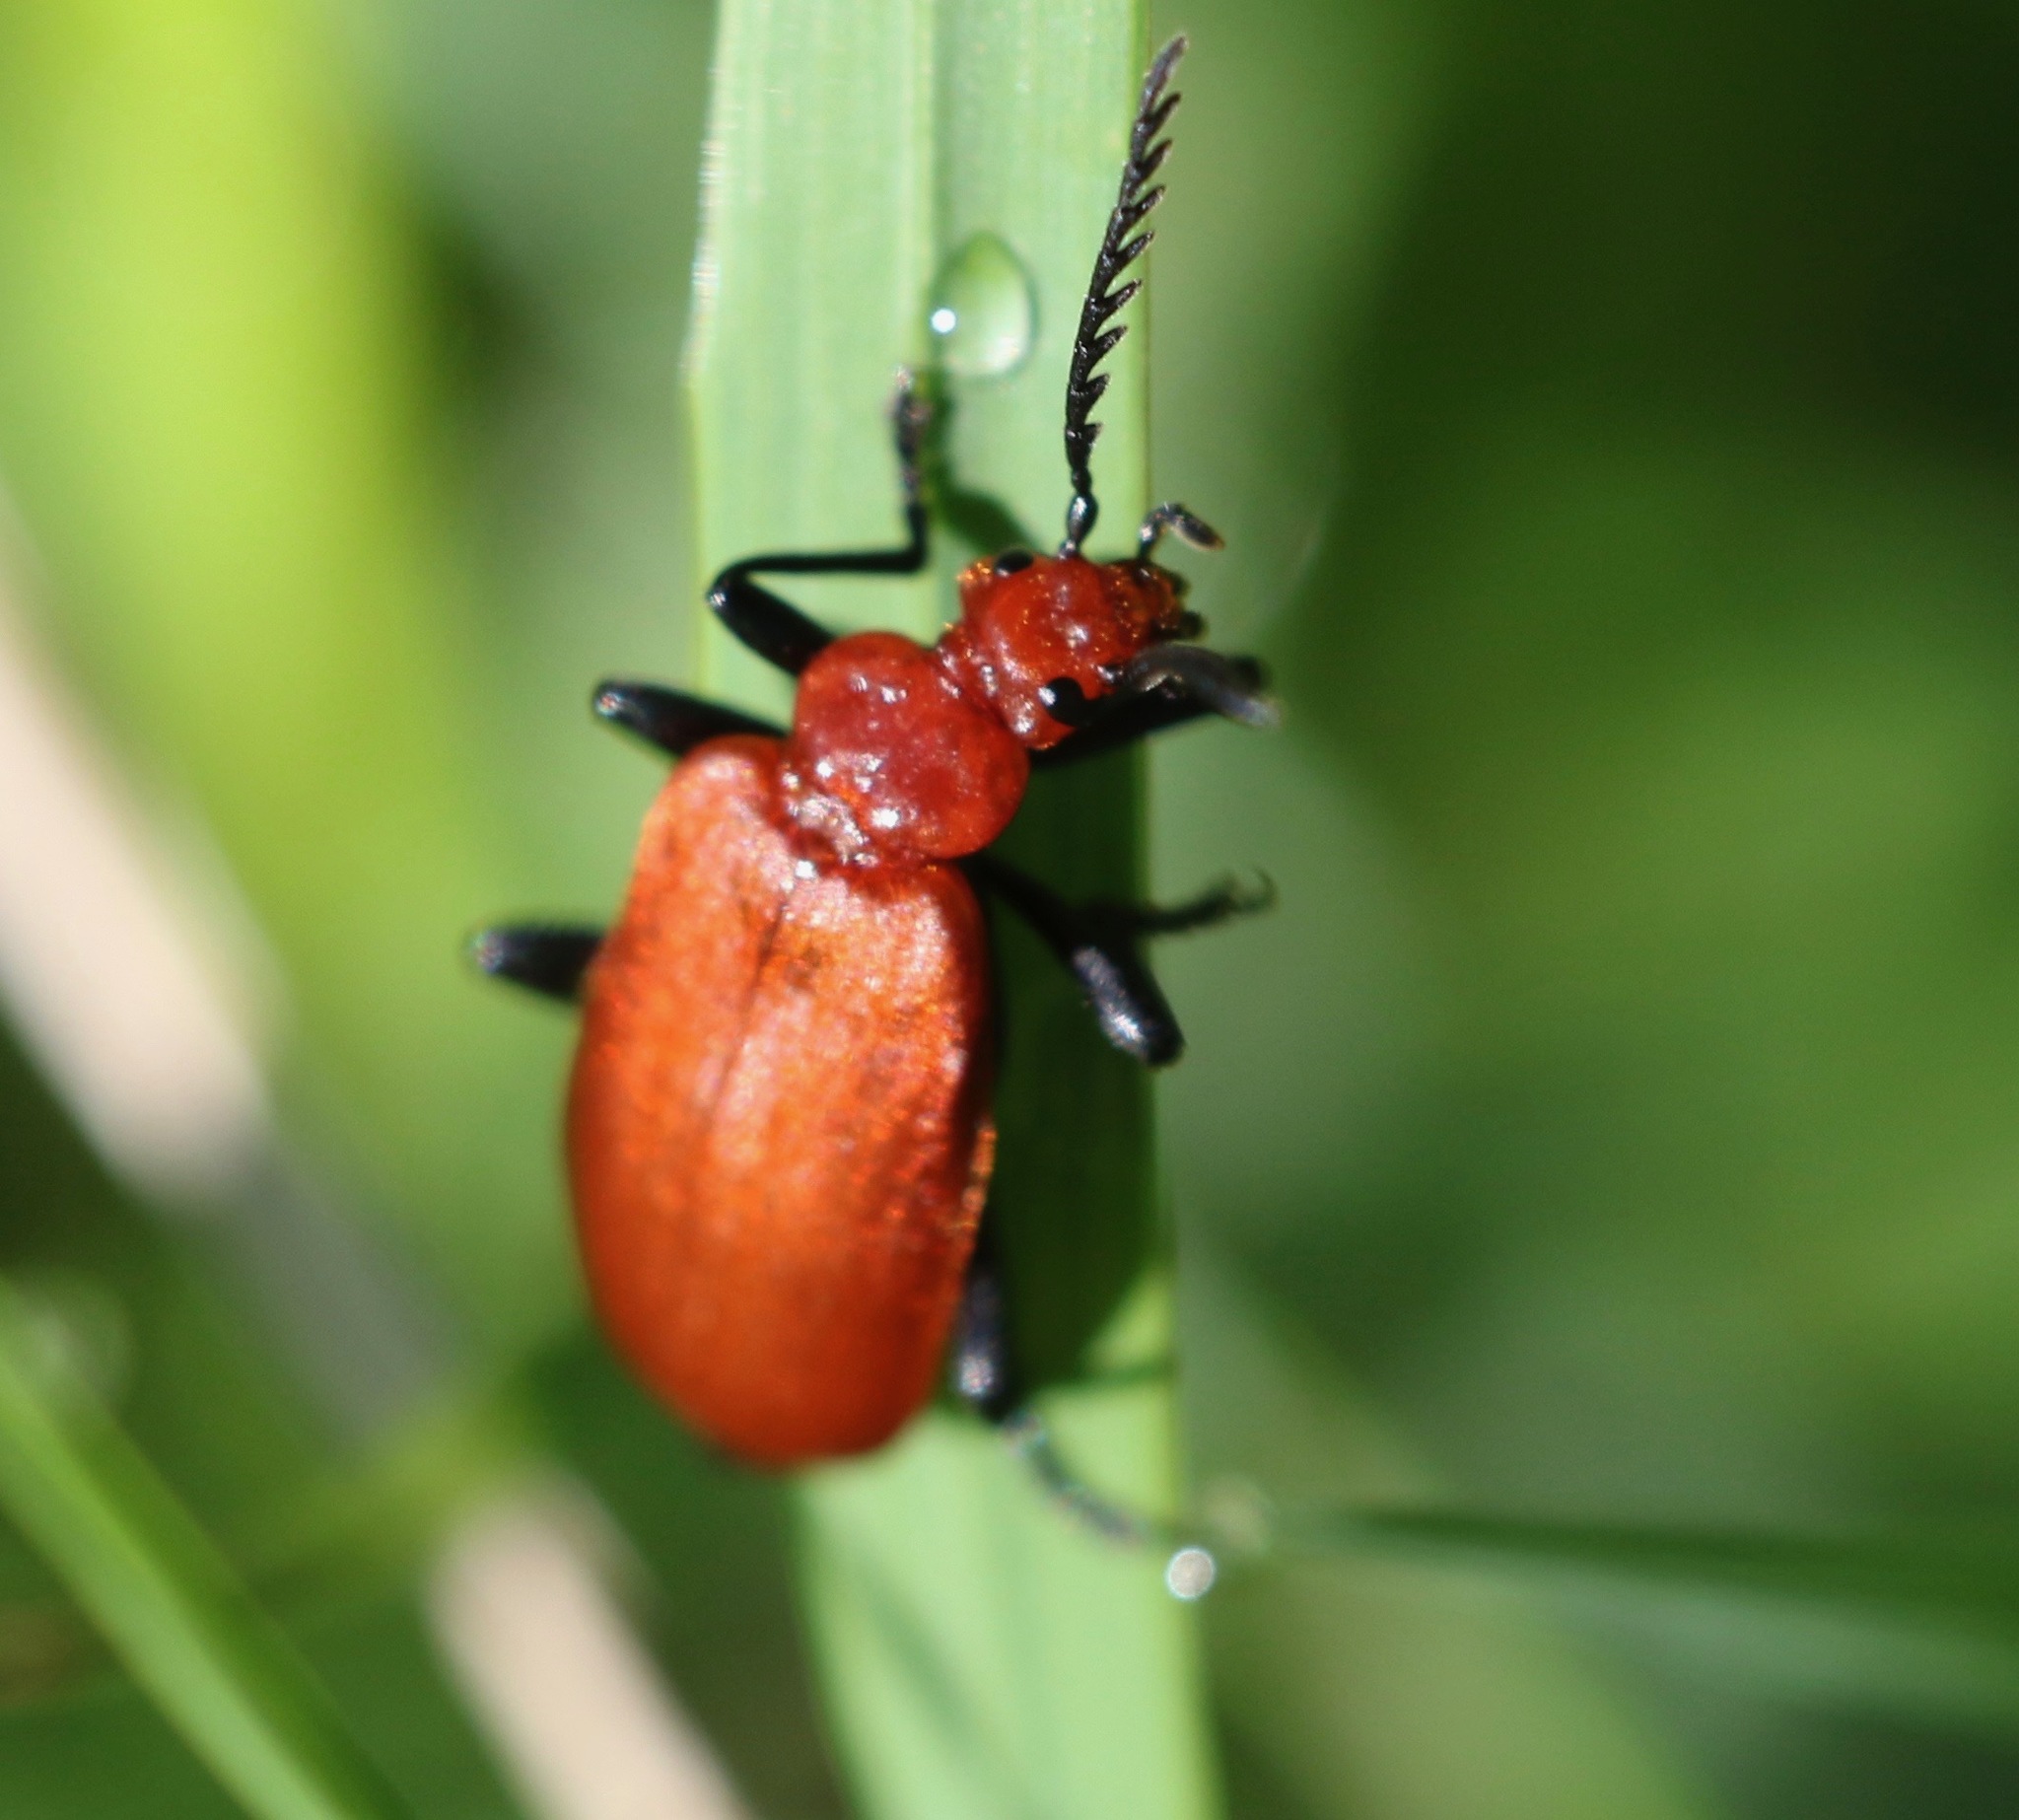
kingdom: Animalia
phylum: Arthropoda
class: Insecta
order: Coleoptera
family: Pyrochroidae
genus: Pyrochroa
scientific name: Pyrochroa serraticornis
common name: Red-headed cardinal beetle
